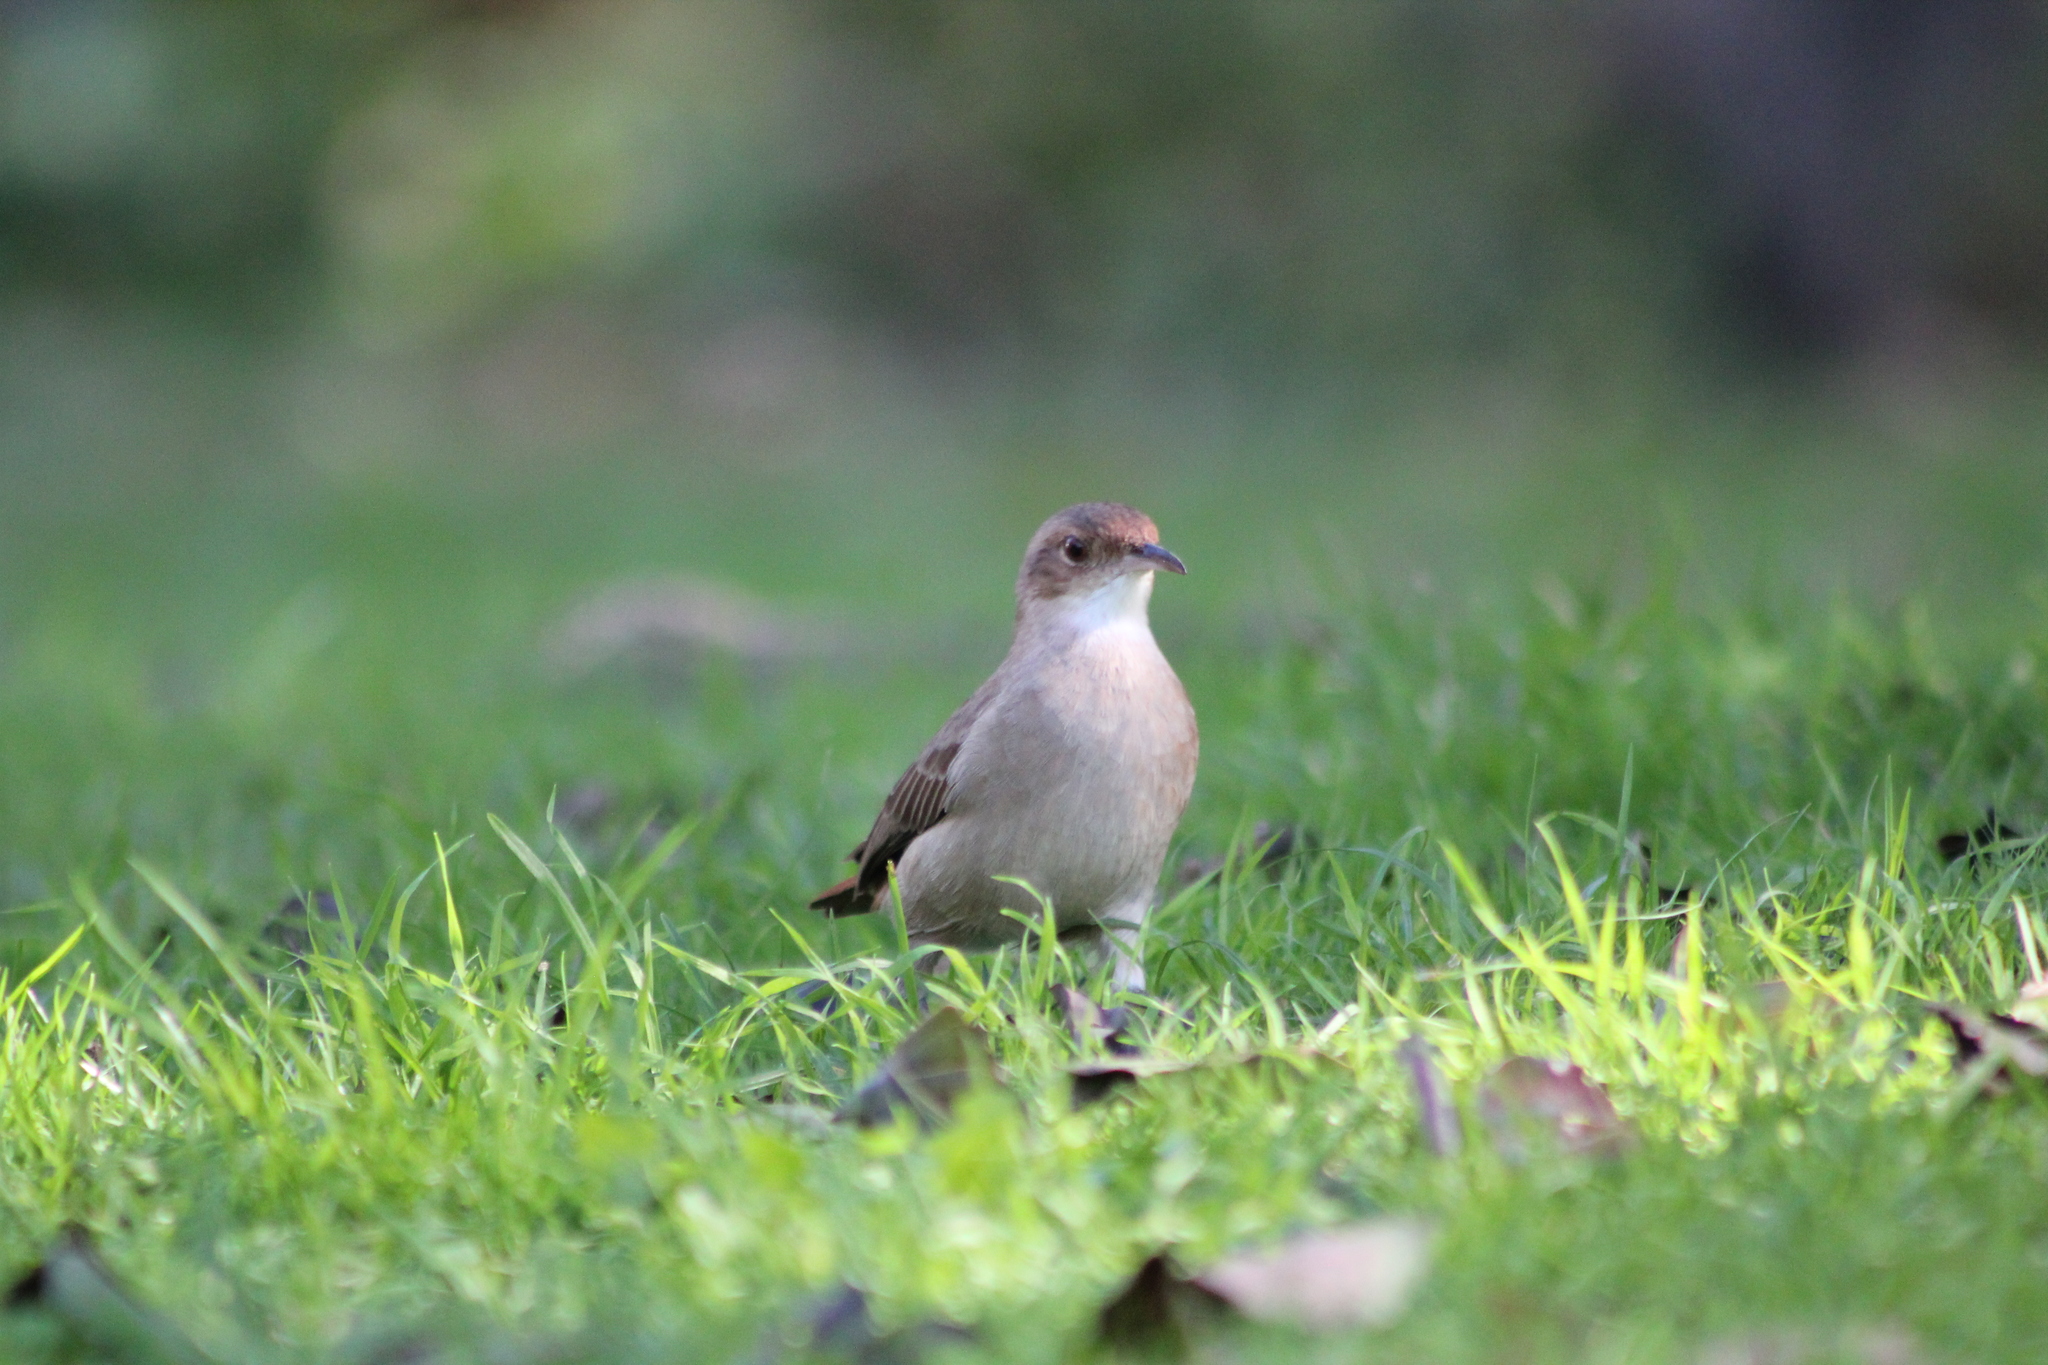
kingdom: Animalia
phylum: Chordata
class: Aves
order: Passeriformes
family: Furnariidae
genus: Furnarius
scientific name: Furnarius rufus
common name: Rufous hornero
